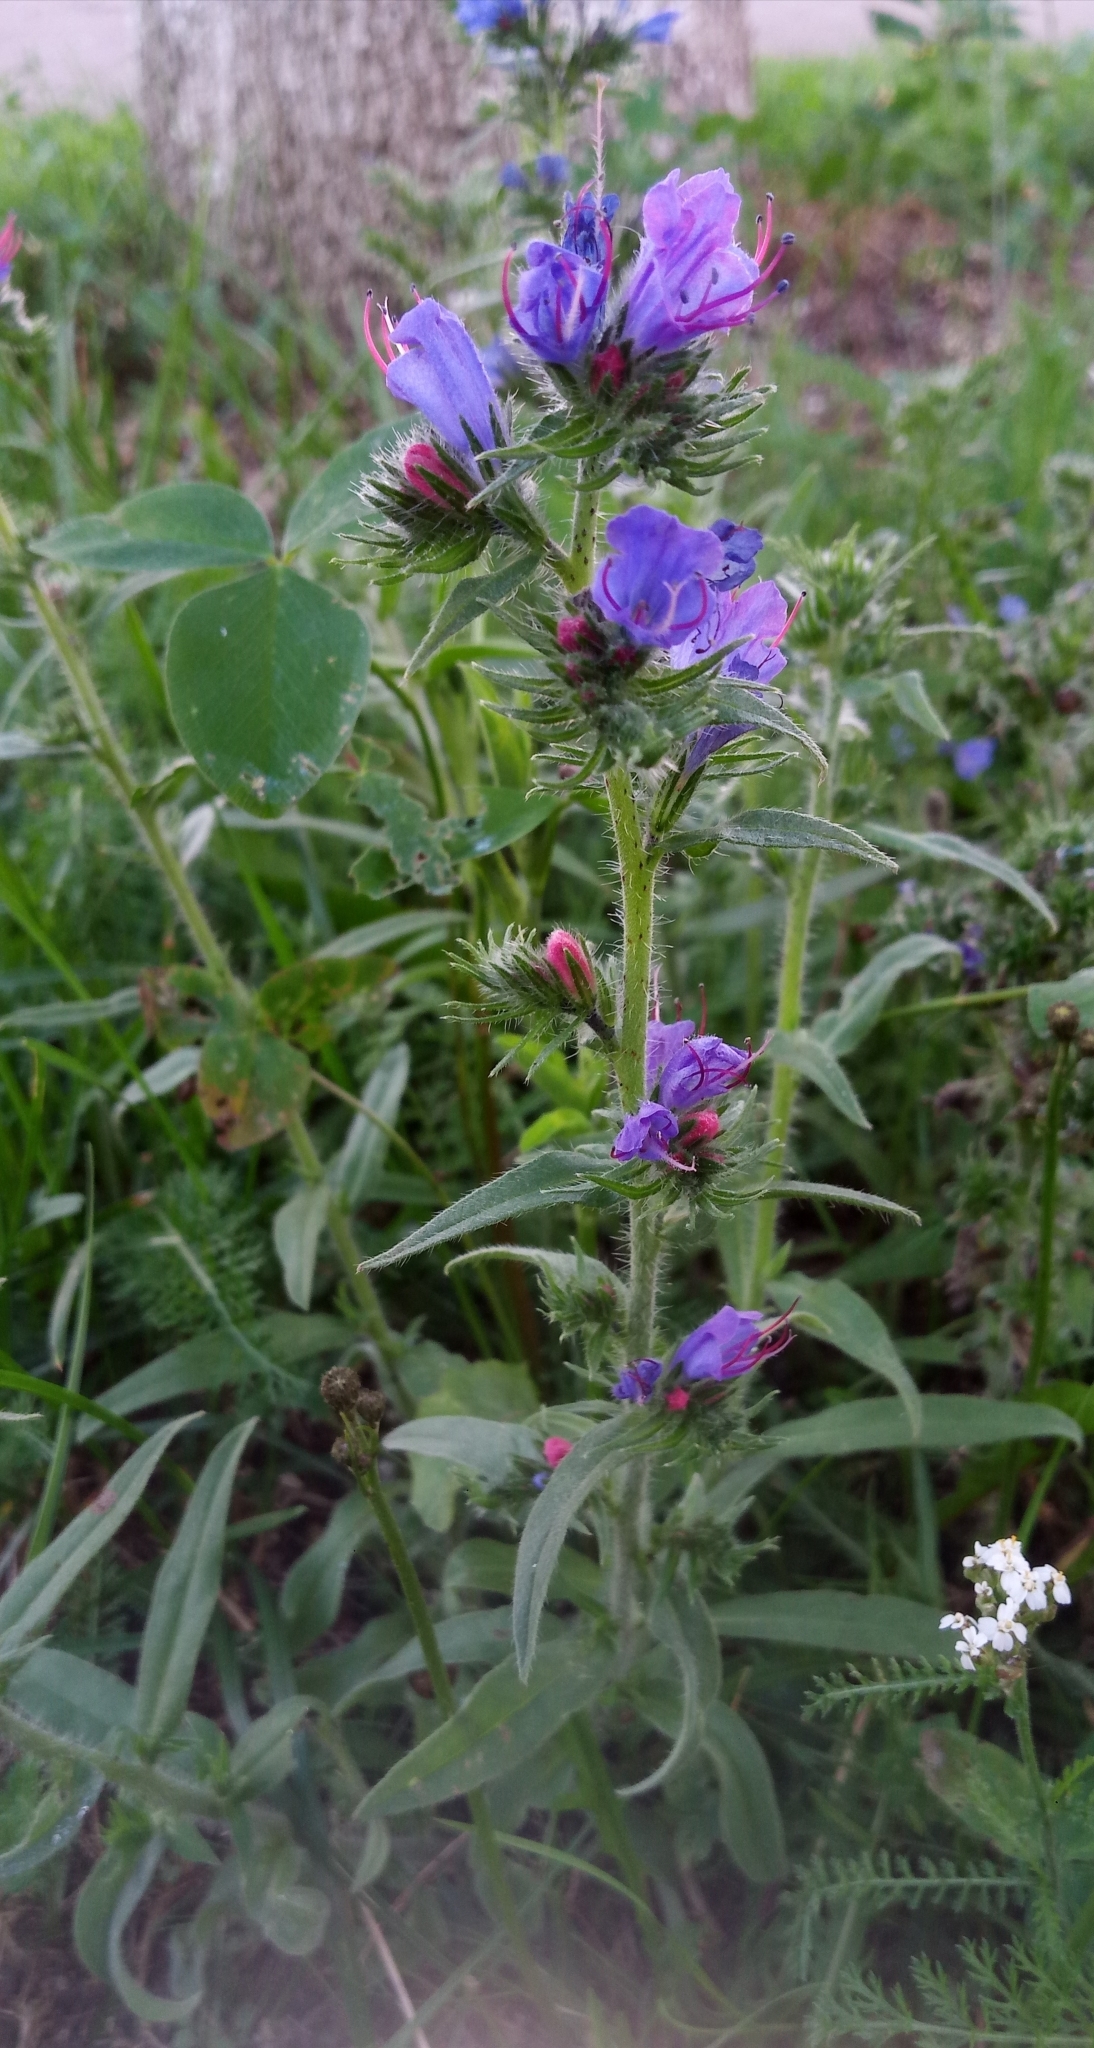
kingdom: Plantae
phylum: Tracheophyta
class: Magnoliopsida
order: Boraginales
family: Boraginaceae
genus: Echium
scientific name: Echium vulgare
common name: Common viper's bugloss
